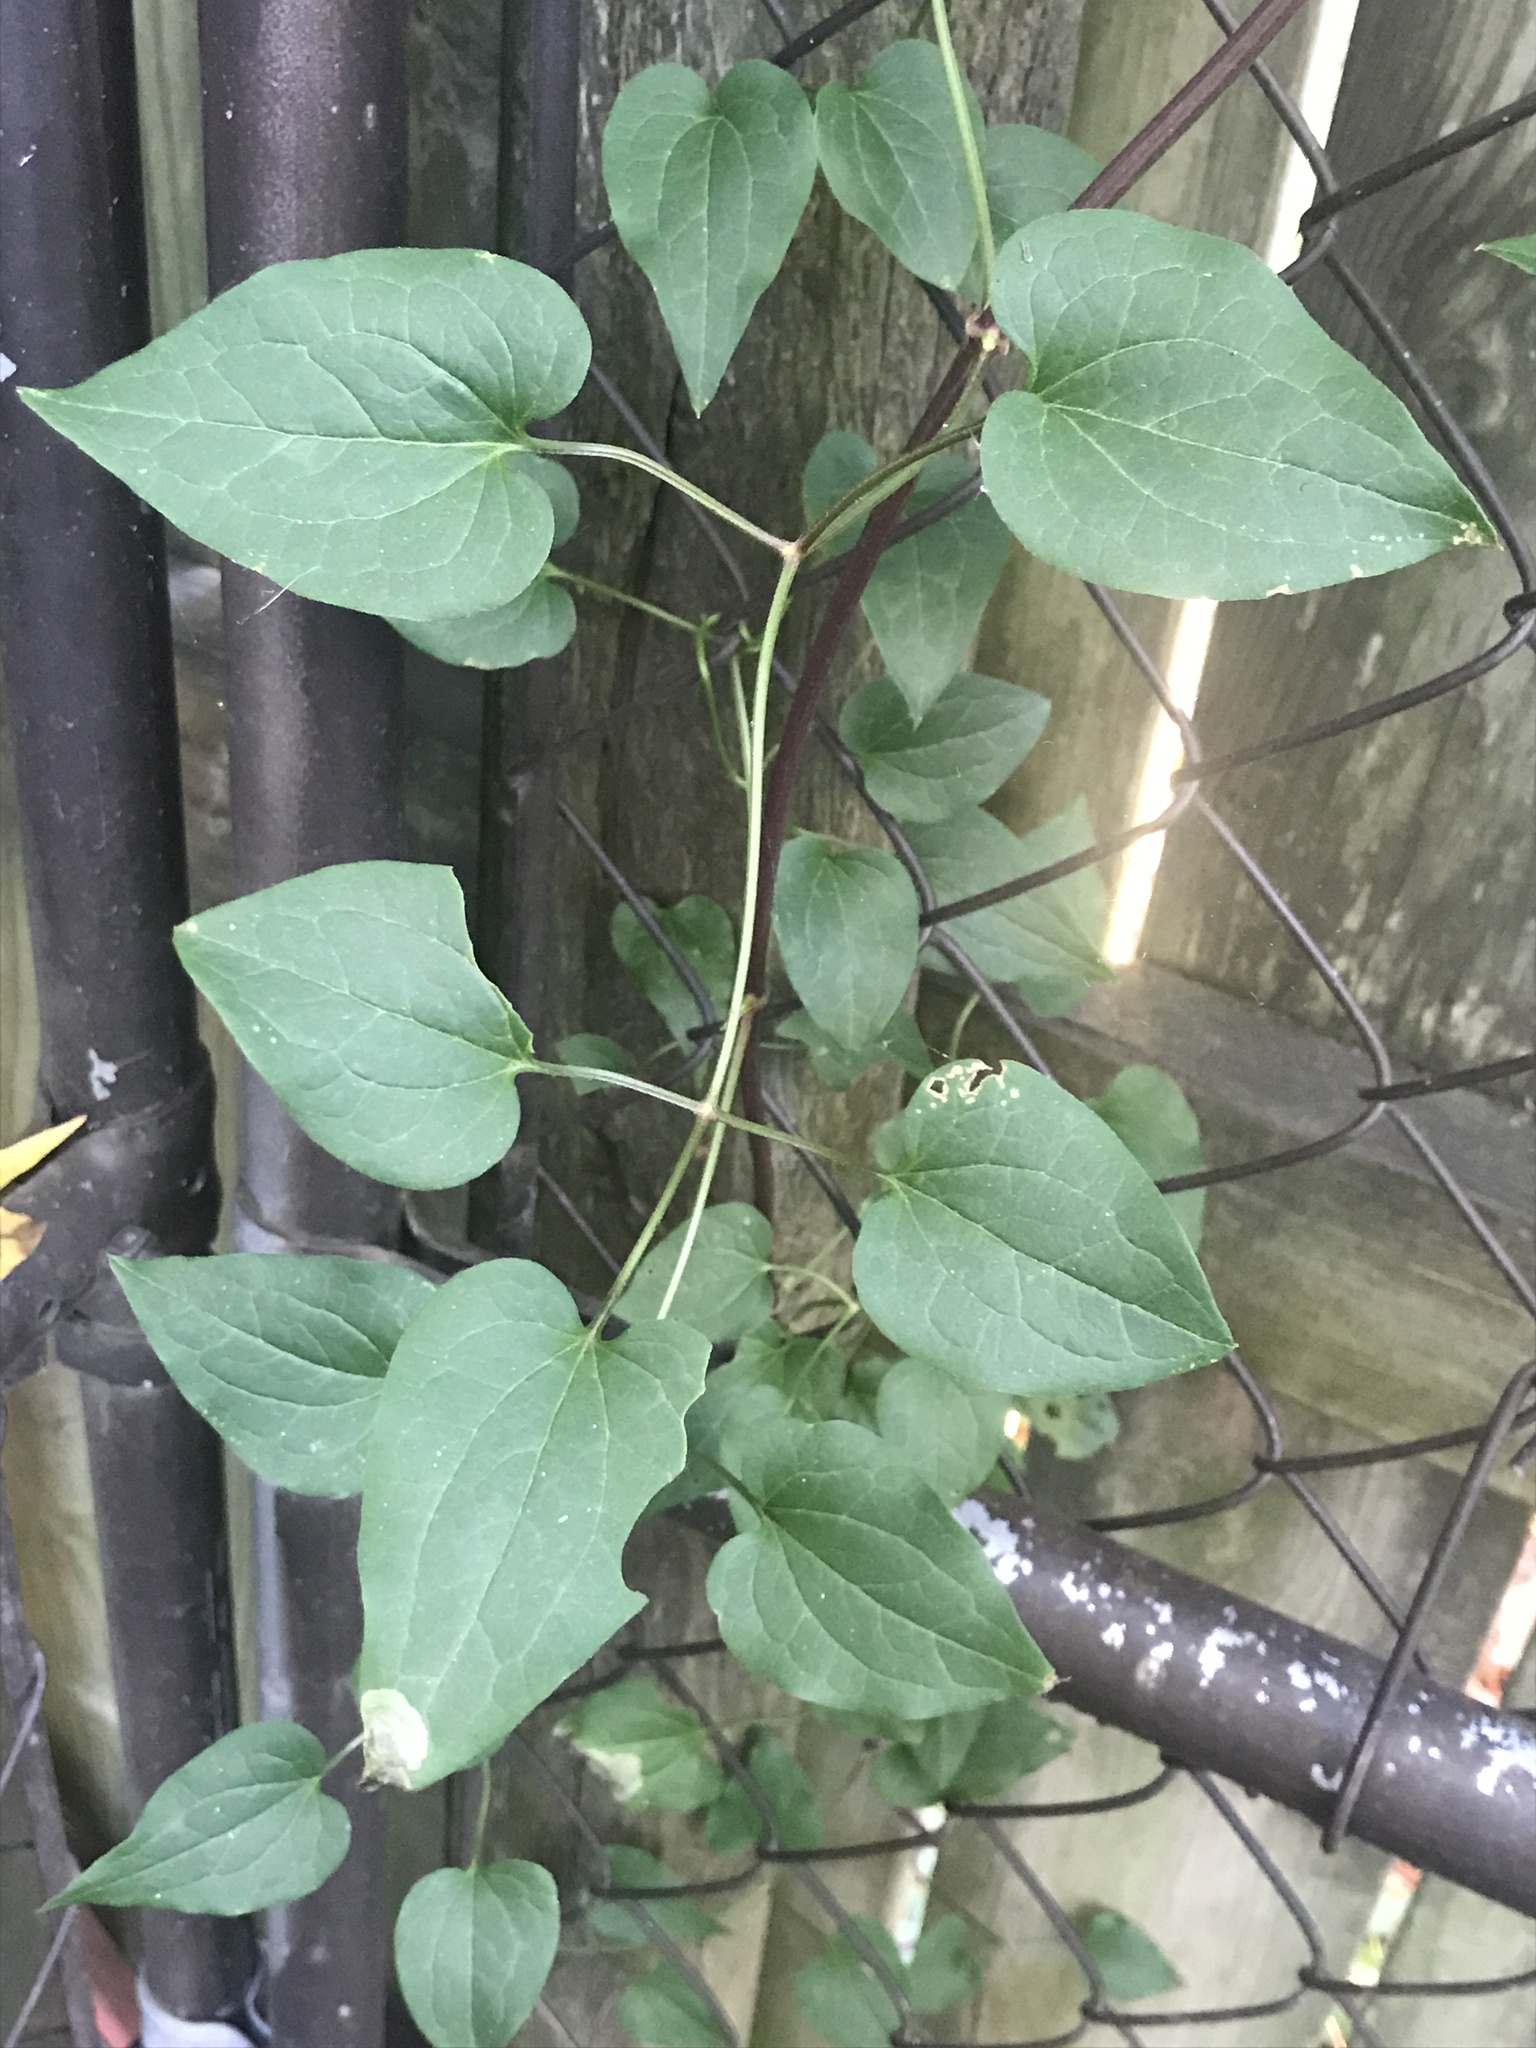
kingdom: Plantae
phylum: Tracheophyta
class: Magnoliopsida
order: Ranunculales
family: Ranunculaceae
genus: Clematis
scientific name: Clematis terniflora
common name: Sweet autumn clematis
